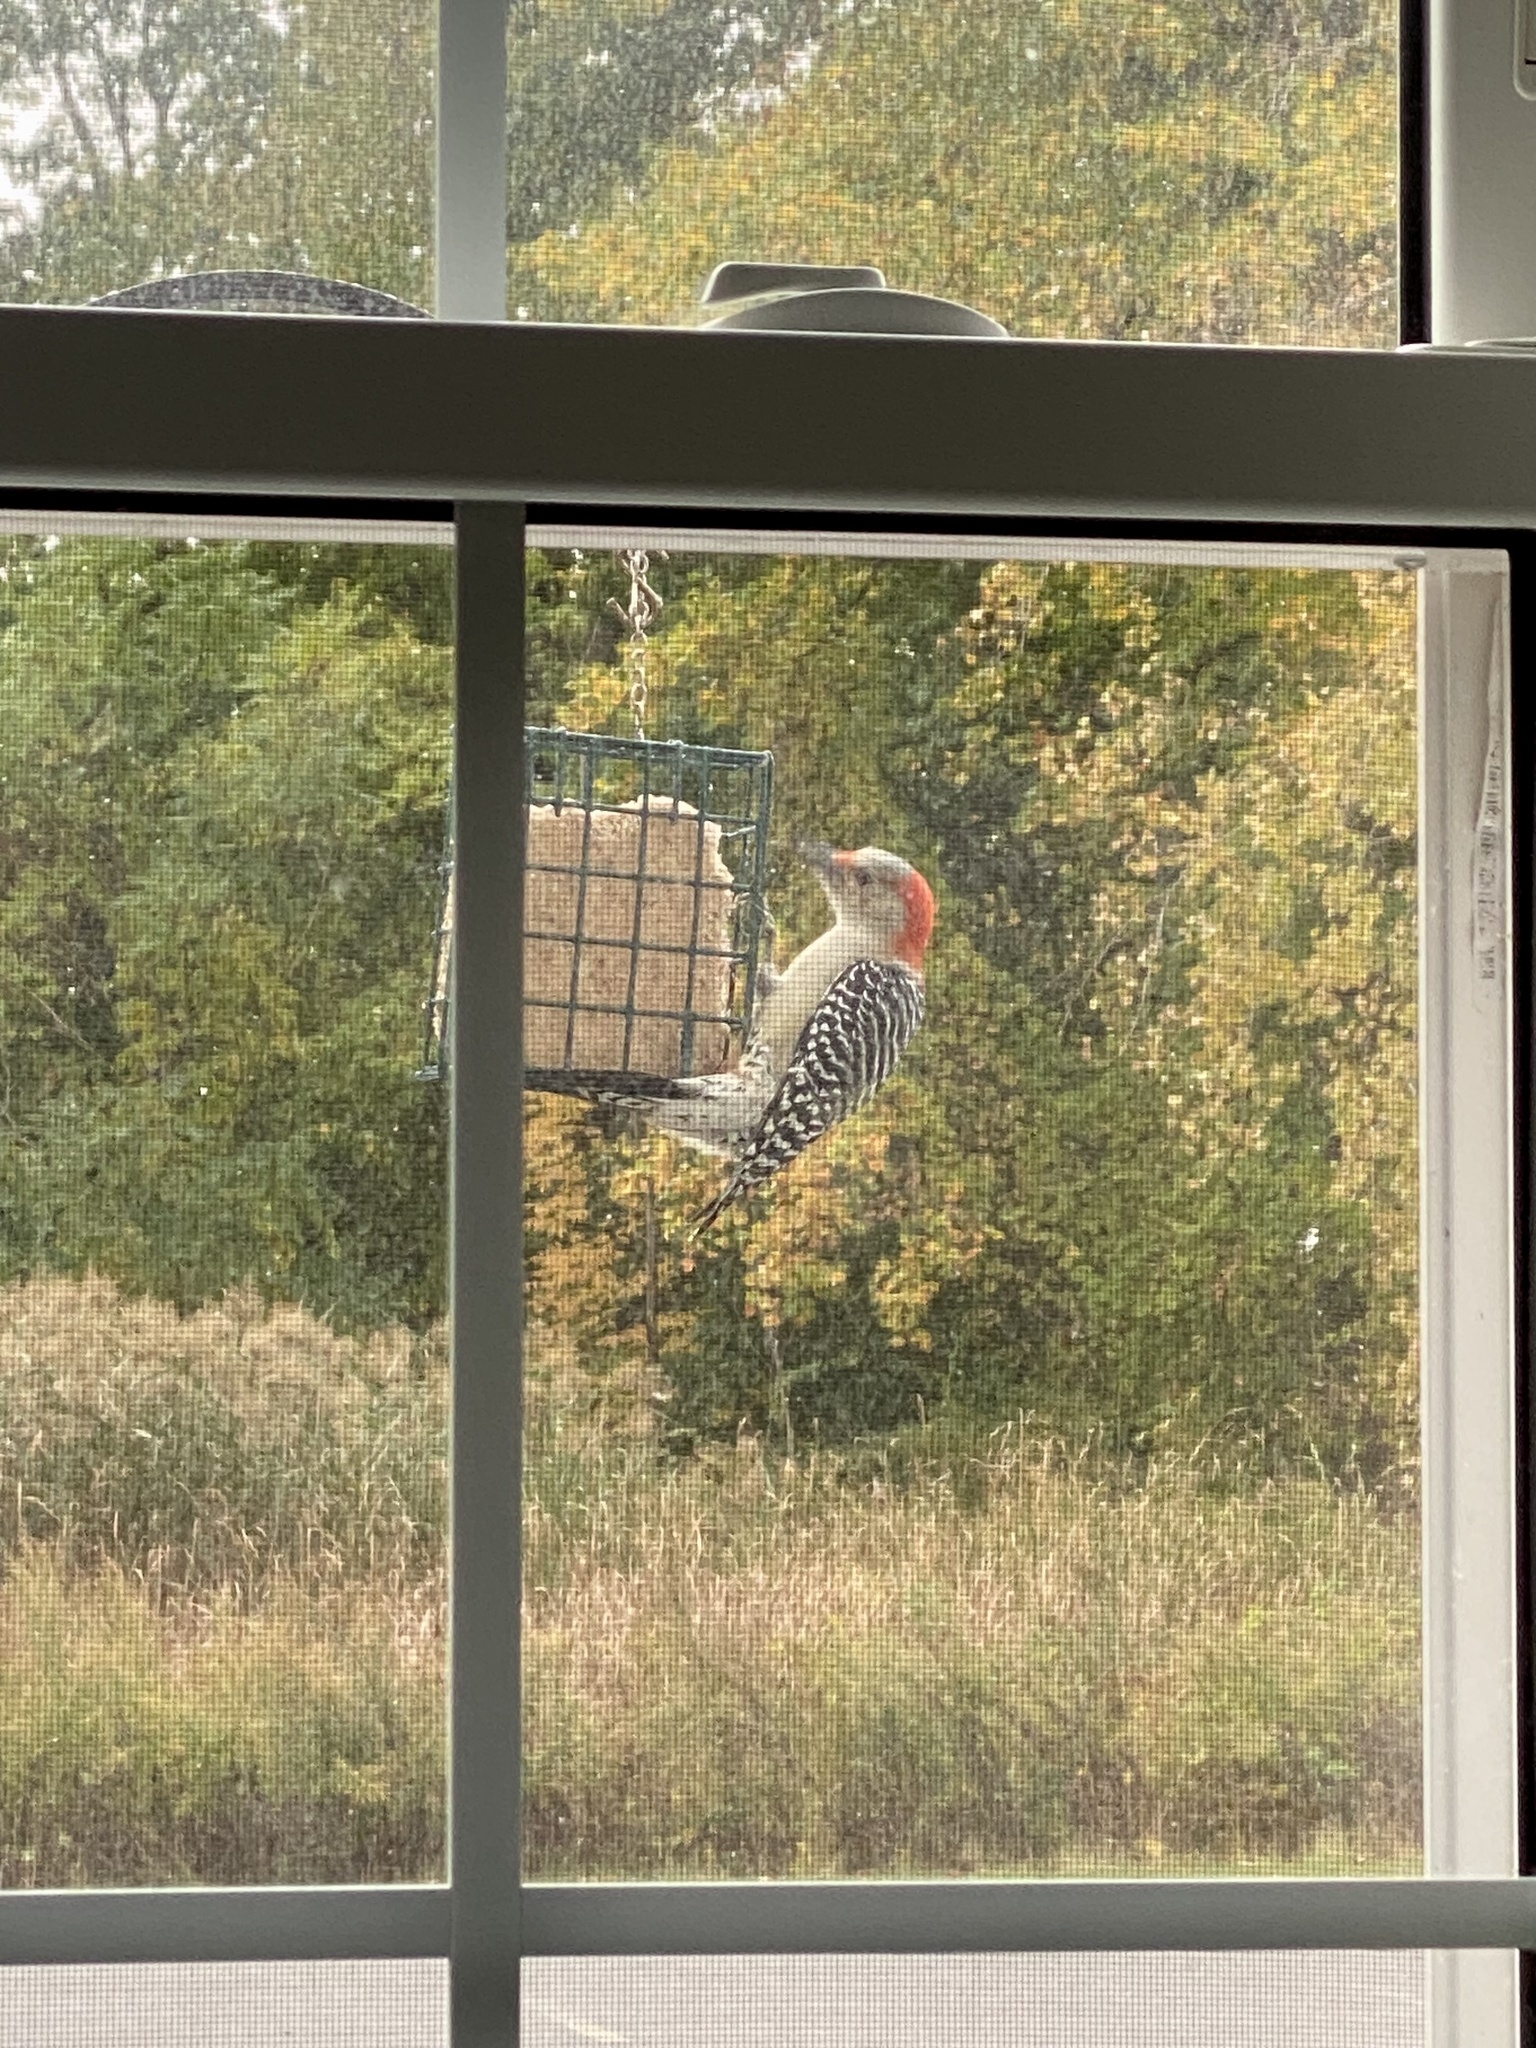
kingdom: Animalia
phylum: Chordata
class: Aves
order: Piciformes
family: Picidae
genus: Melanerpes
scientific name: Melanerpes carolinus
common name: Red-bellied woodpecker
